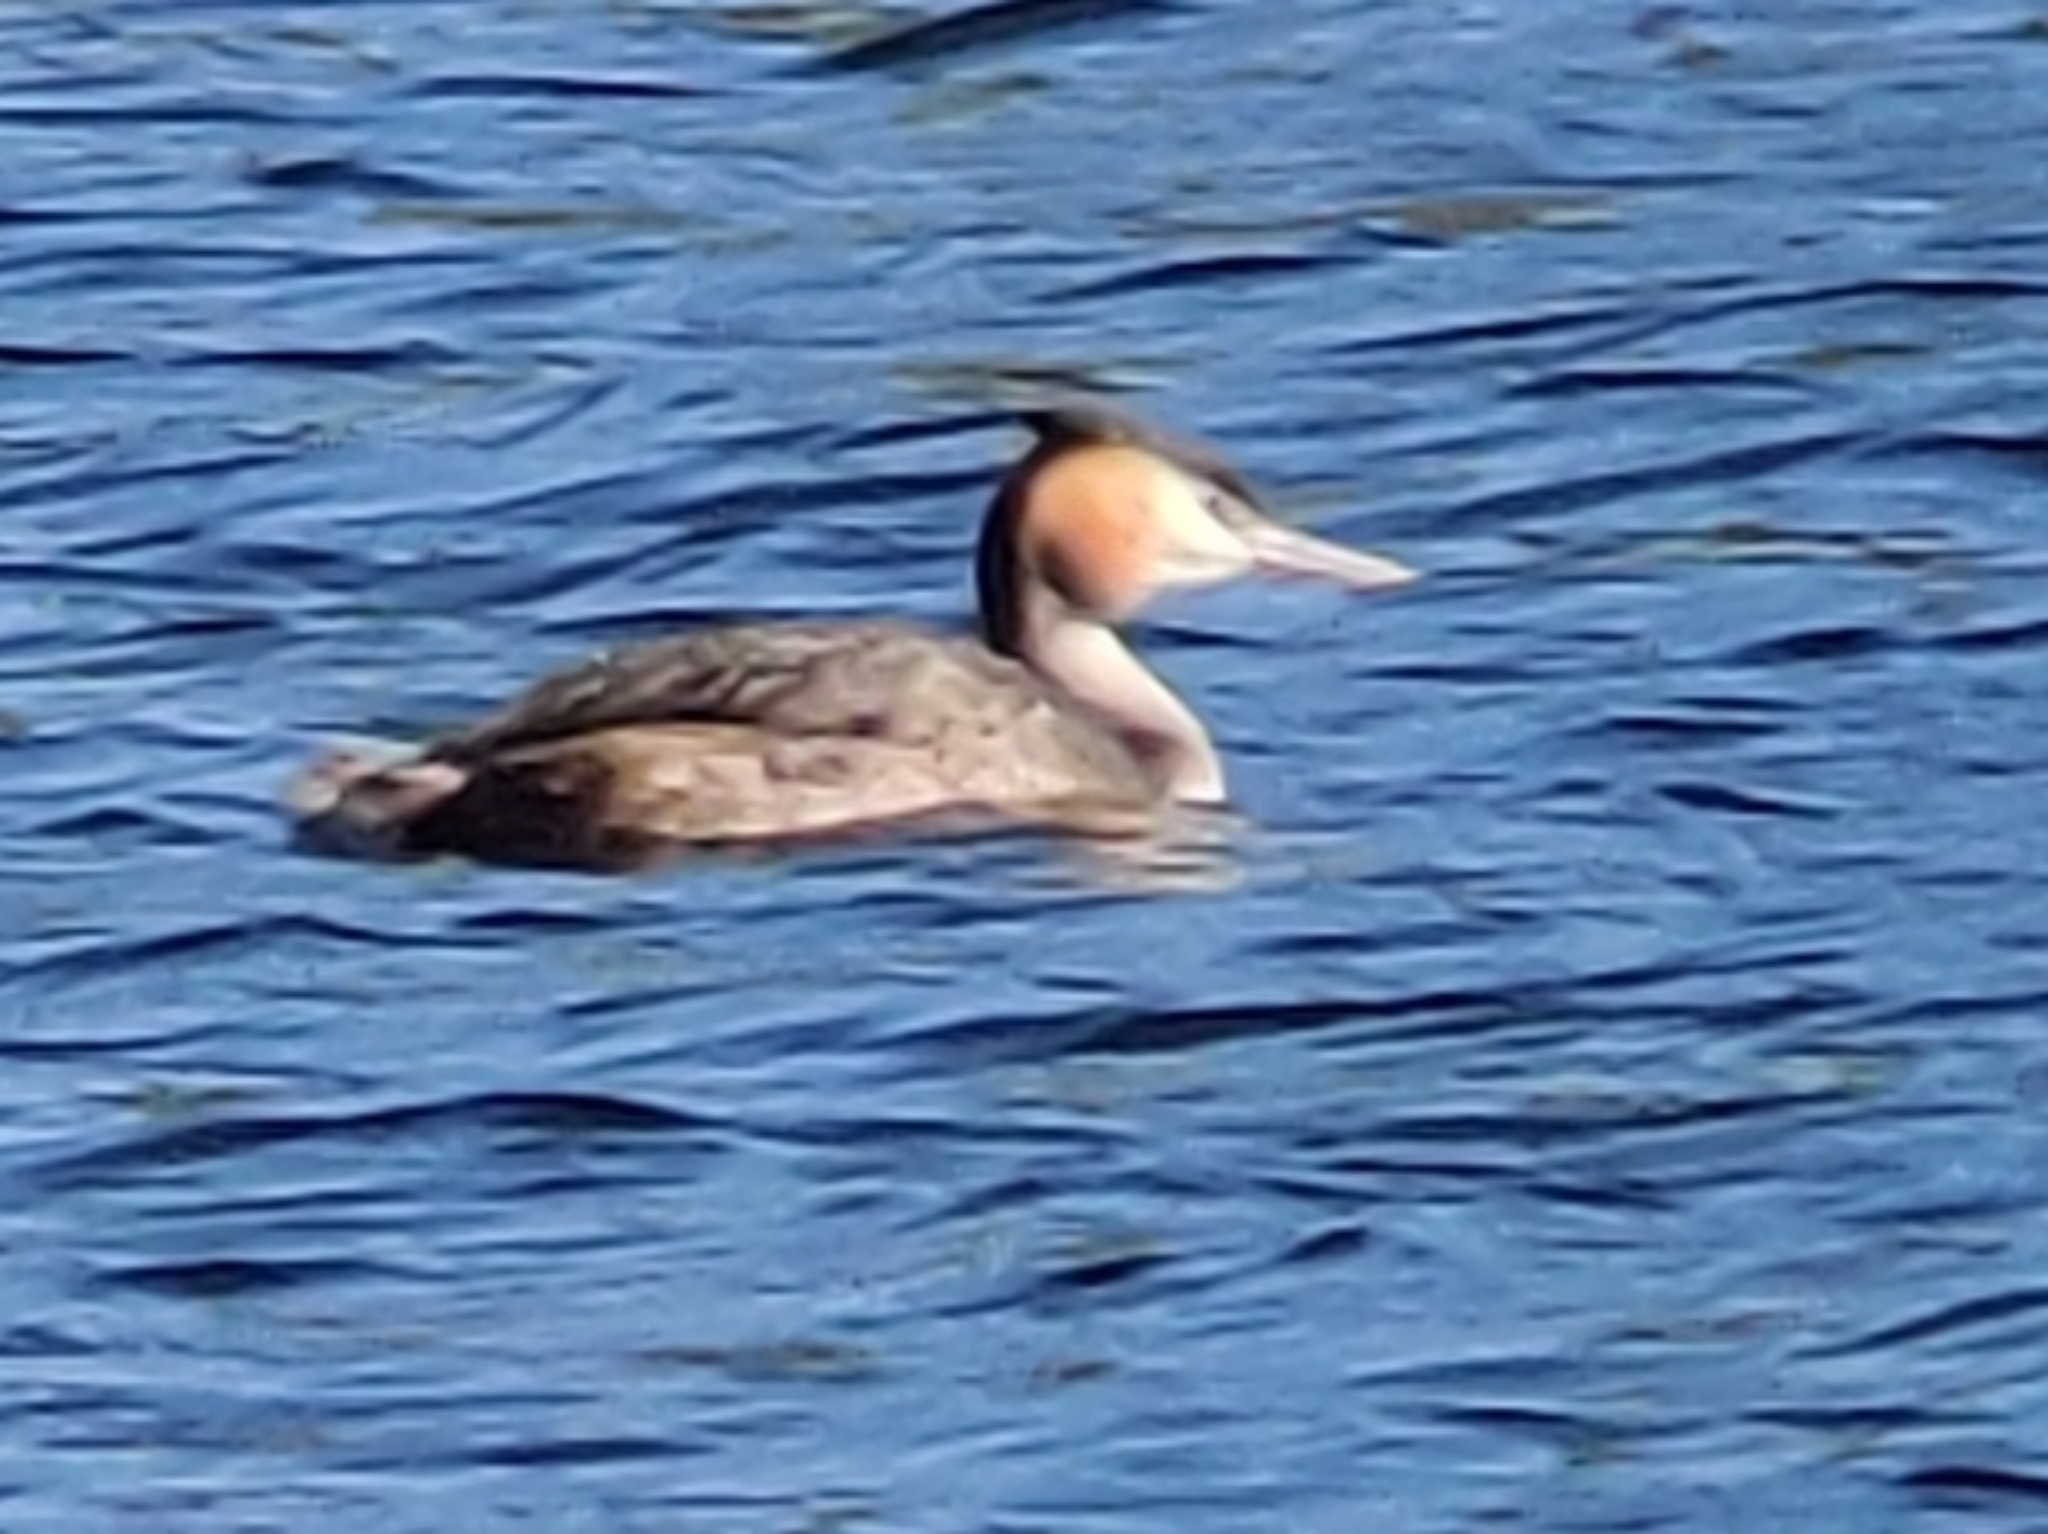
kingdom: Animalia
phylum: Chordata
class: Aves
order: Podicipediformes
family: Podicipedidae
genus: Podiceps
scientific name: Podiceps cristatus
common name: Great crested grebe
